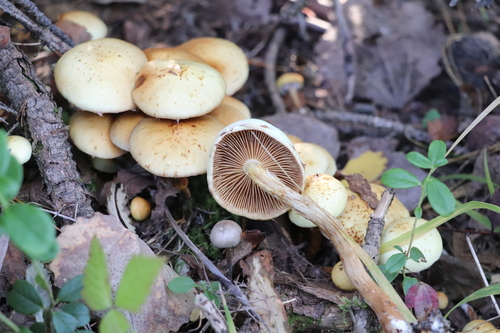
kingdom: Fungi
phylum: Basidiomycota
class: Agaricomycetes
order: Agaricales
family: Strophariaceae
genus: Hypholoma
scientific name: Hypholoma capnoides
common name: Conifer tuft
